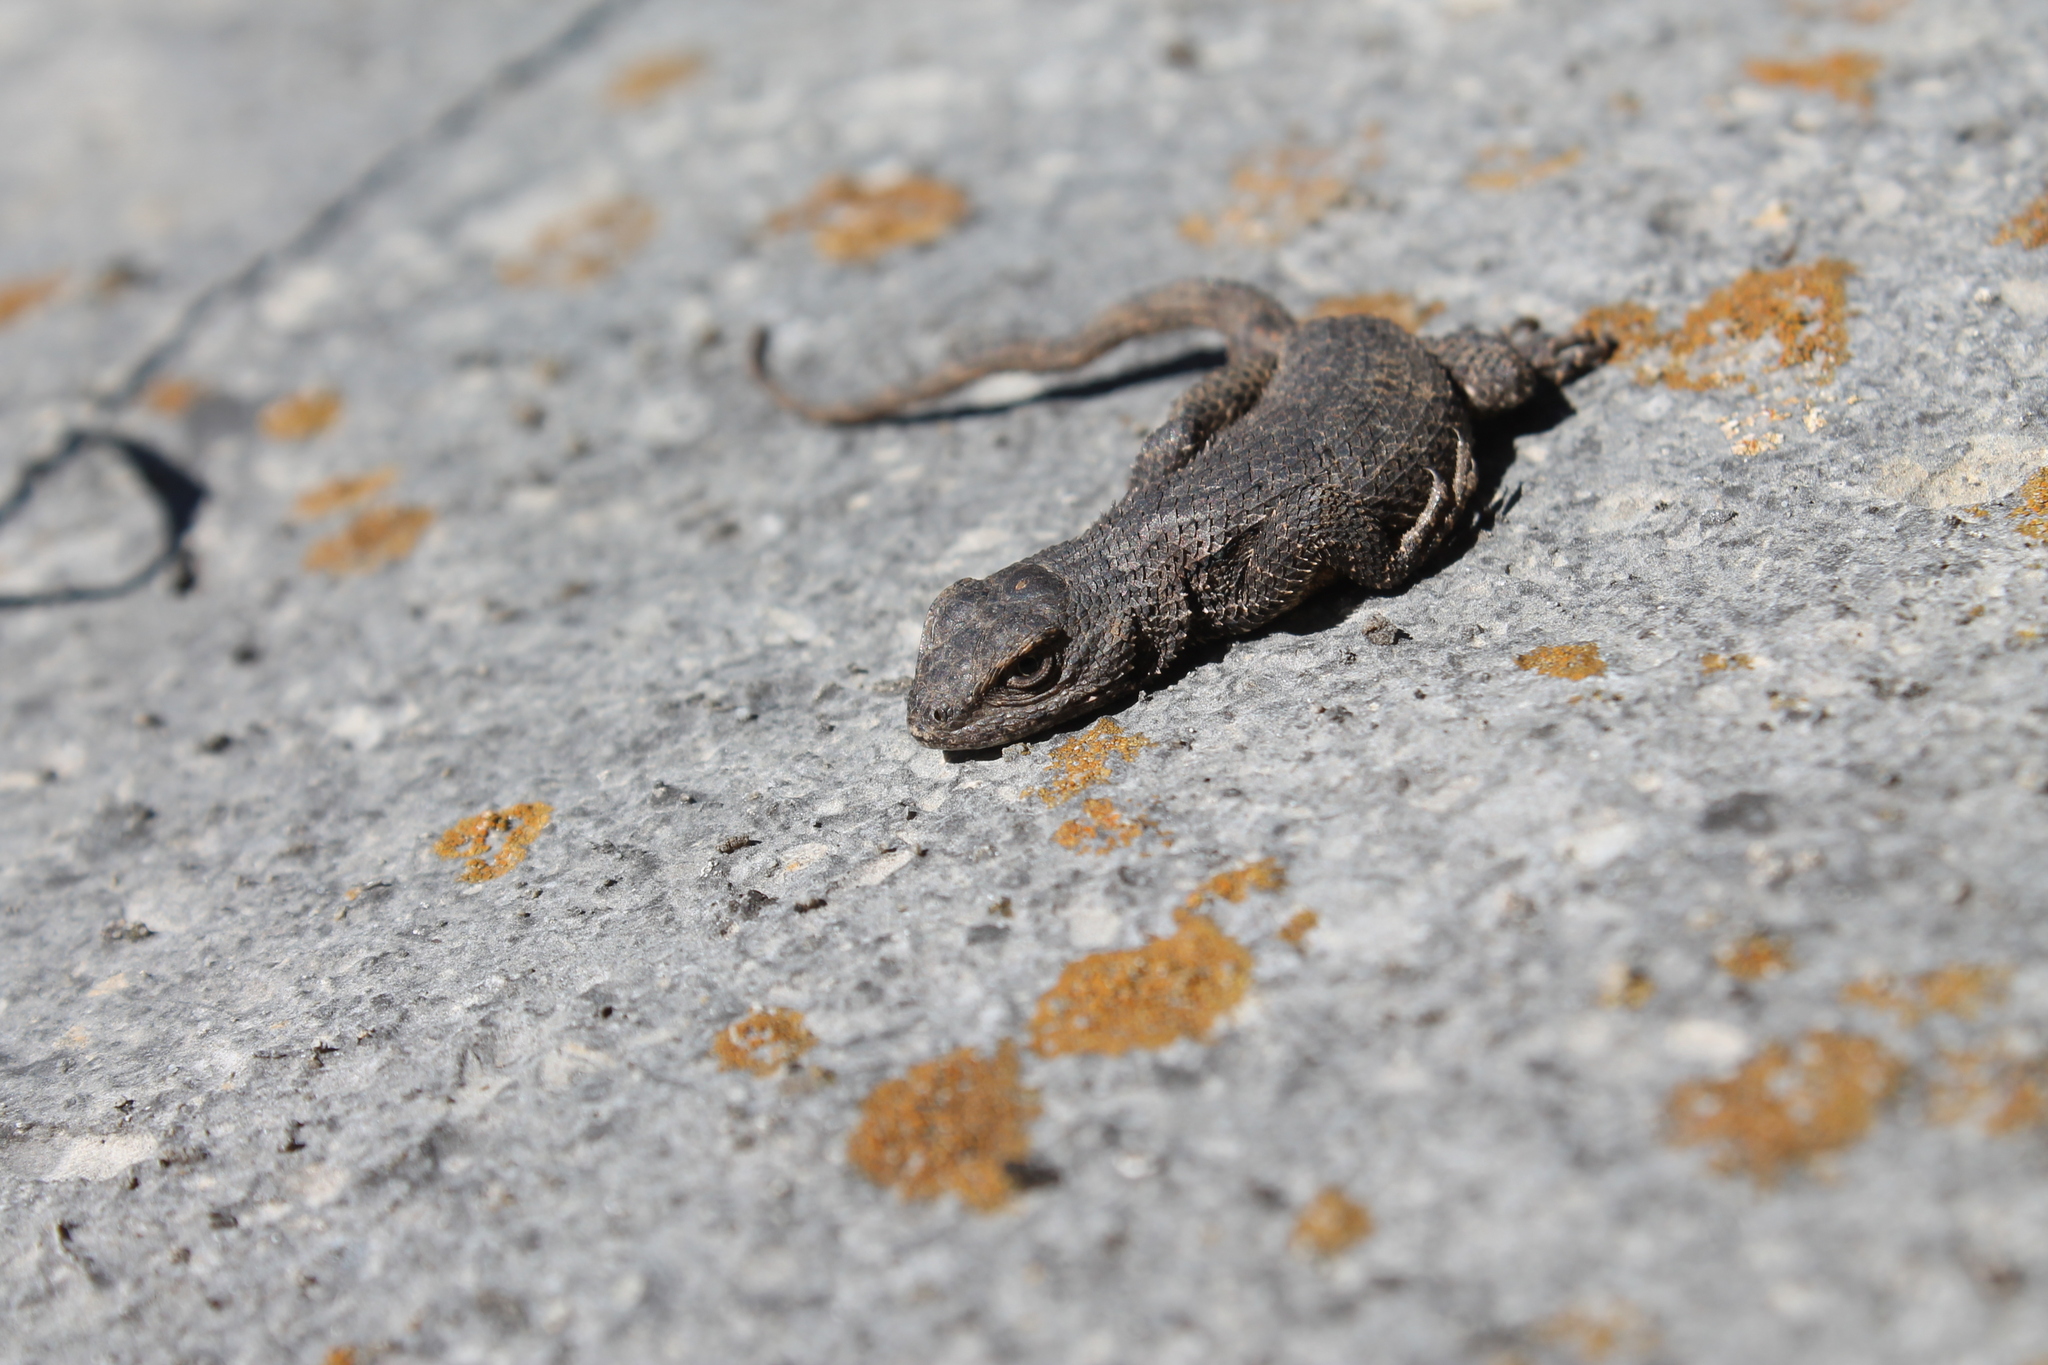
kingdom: Animalia
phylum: Chordata
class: Squamata
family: Phrynosomatidae
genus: Sceloporus
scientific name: Sceloporus undulatus
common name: Eastern fence lizard
